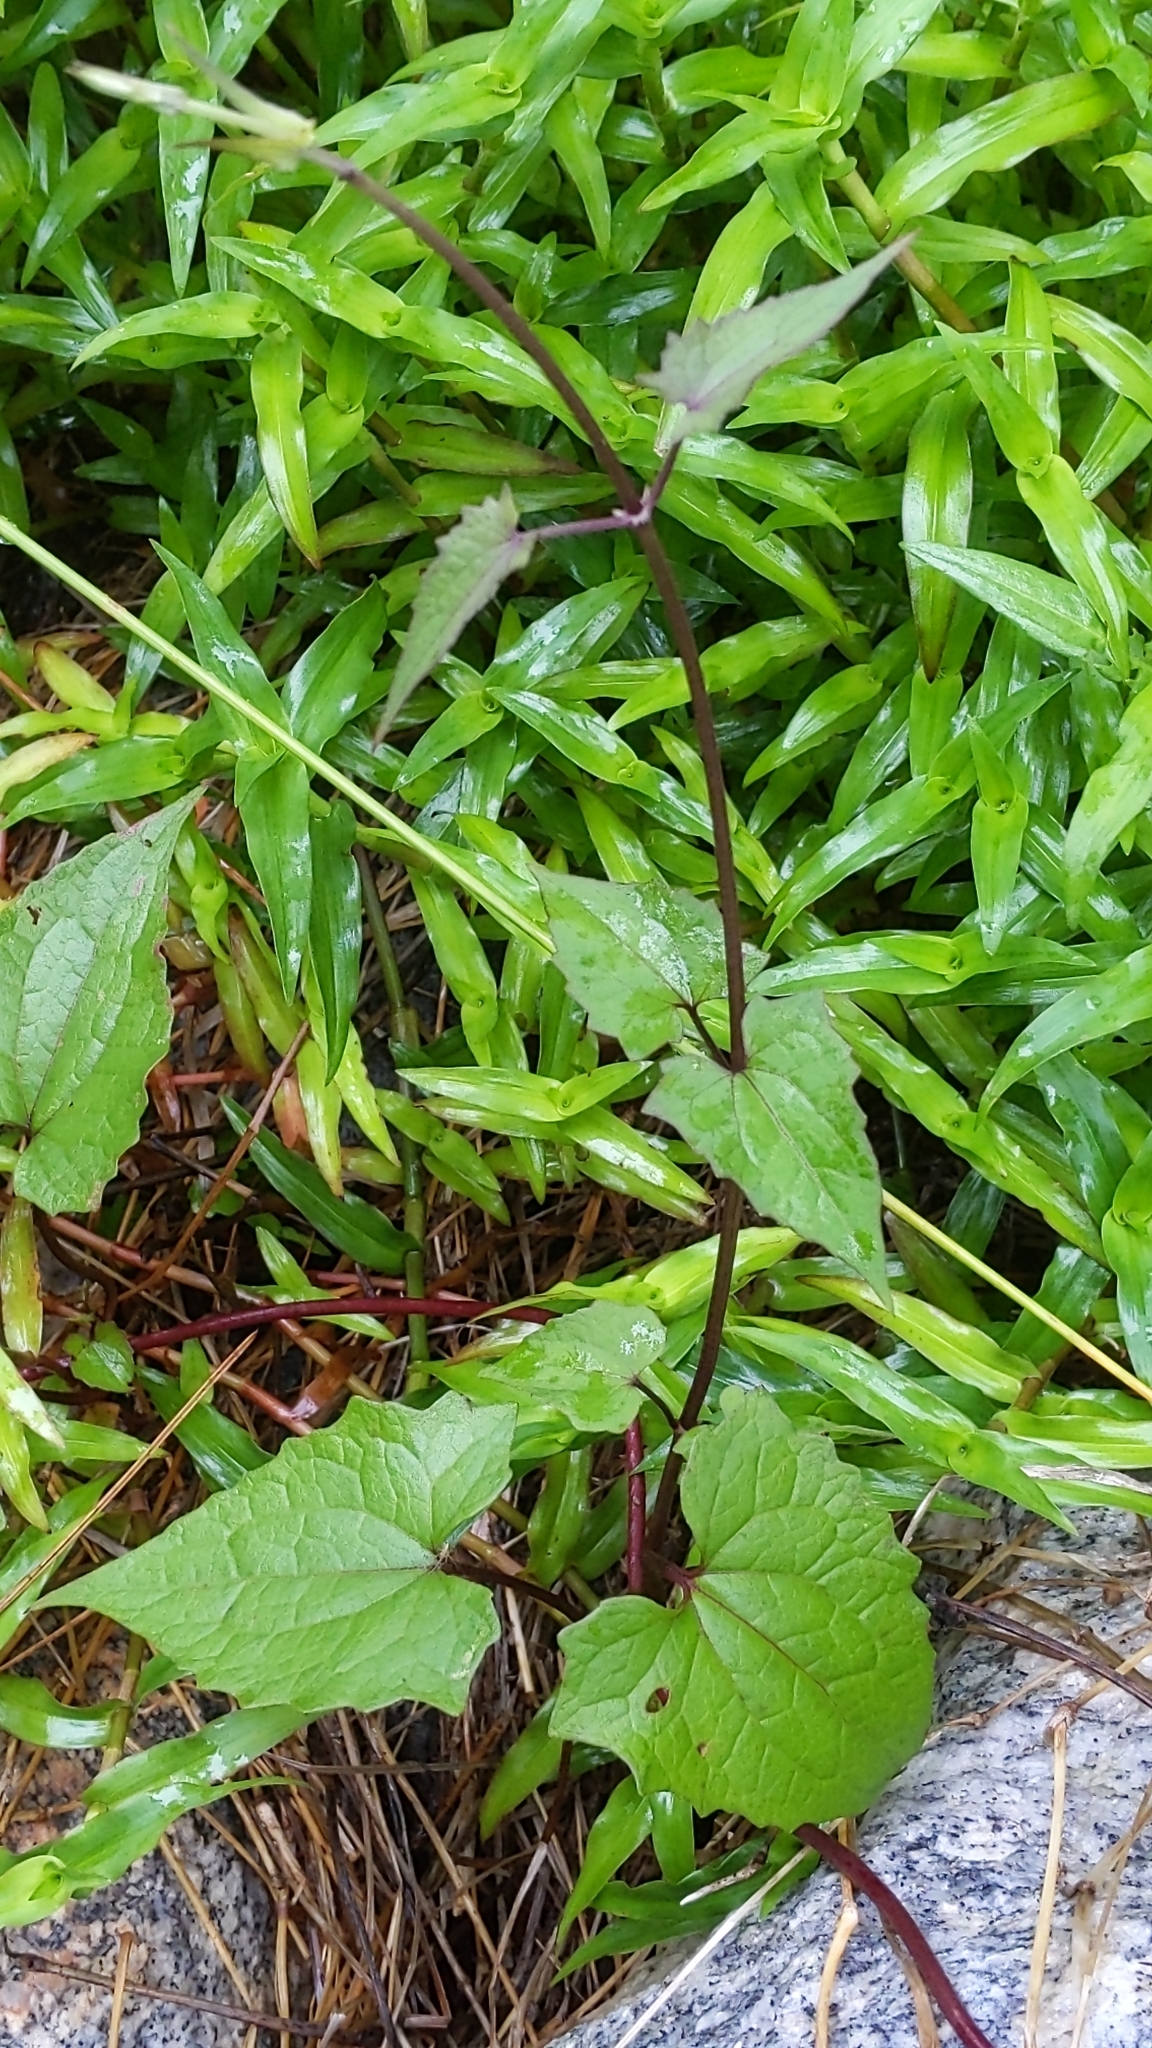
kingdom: Plantae
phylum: Tracheophyta
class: Magnoliopsida
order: Asterales
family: Asteraceae
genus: Mikania
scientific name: Mikania scandens
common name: Climbing hempvine
